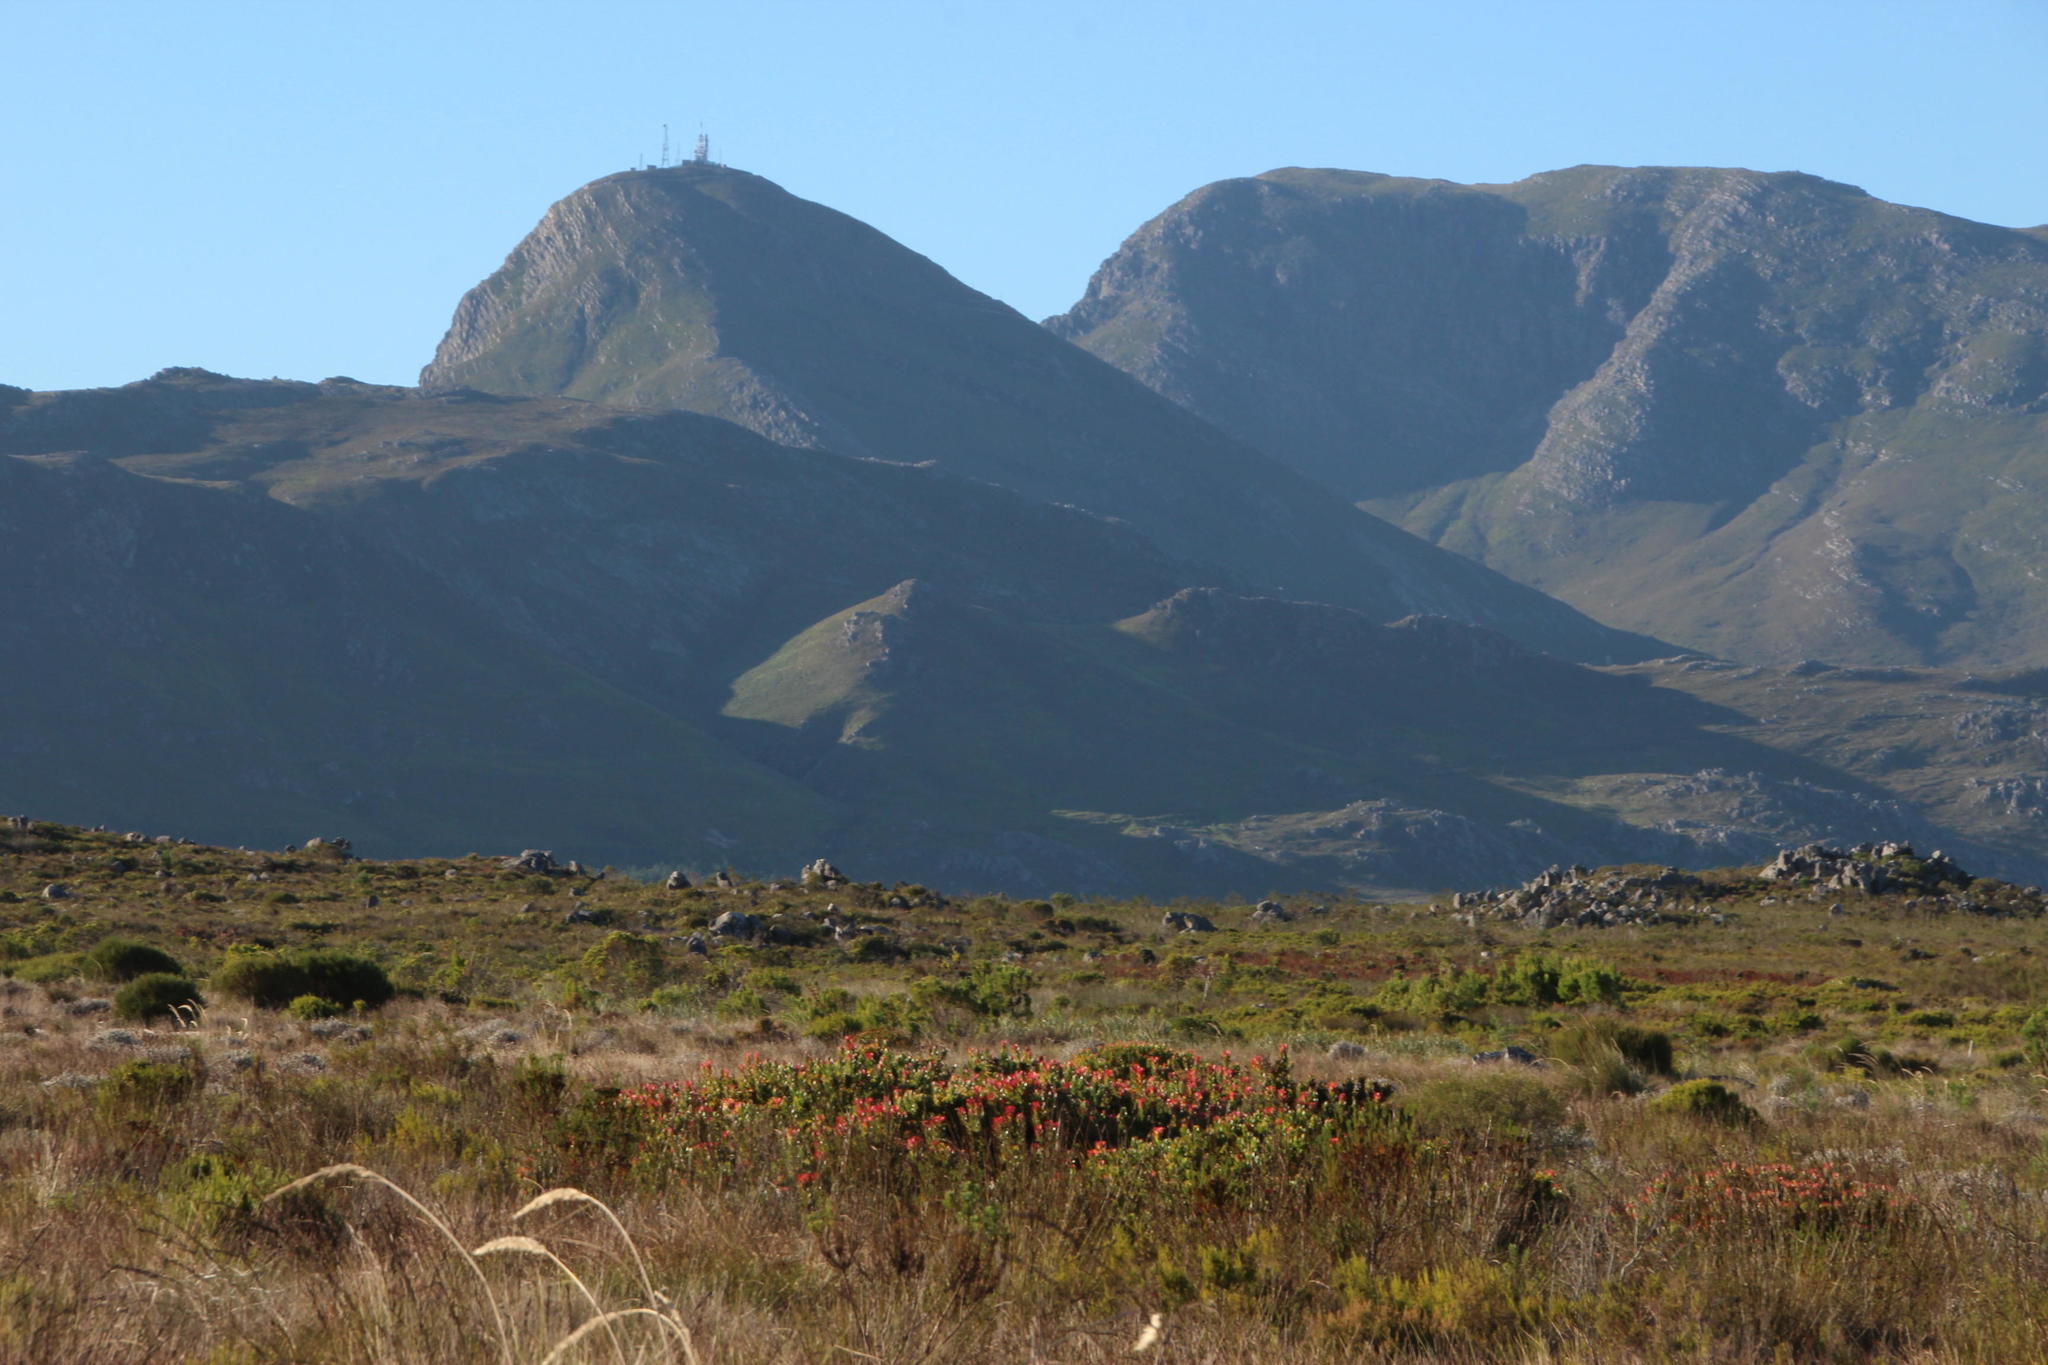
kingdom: Plantae
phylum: Tracheophyta
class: Magnoliopsida
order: Proteales
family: Proteaceae
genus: Mimetes
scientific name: Mimetes cucullatus
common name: Common pagoda
